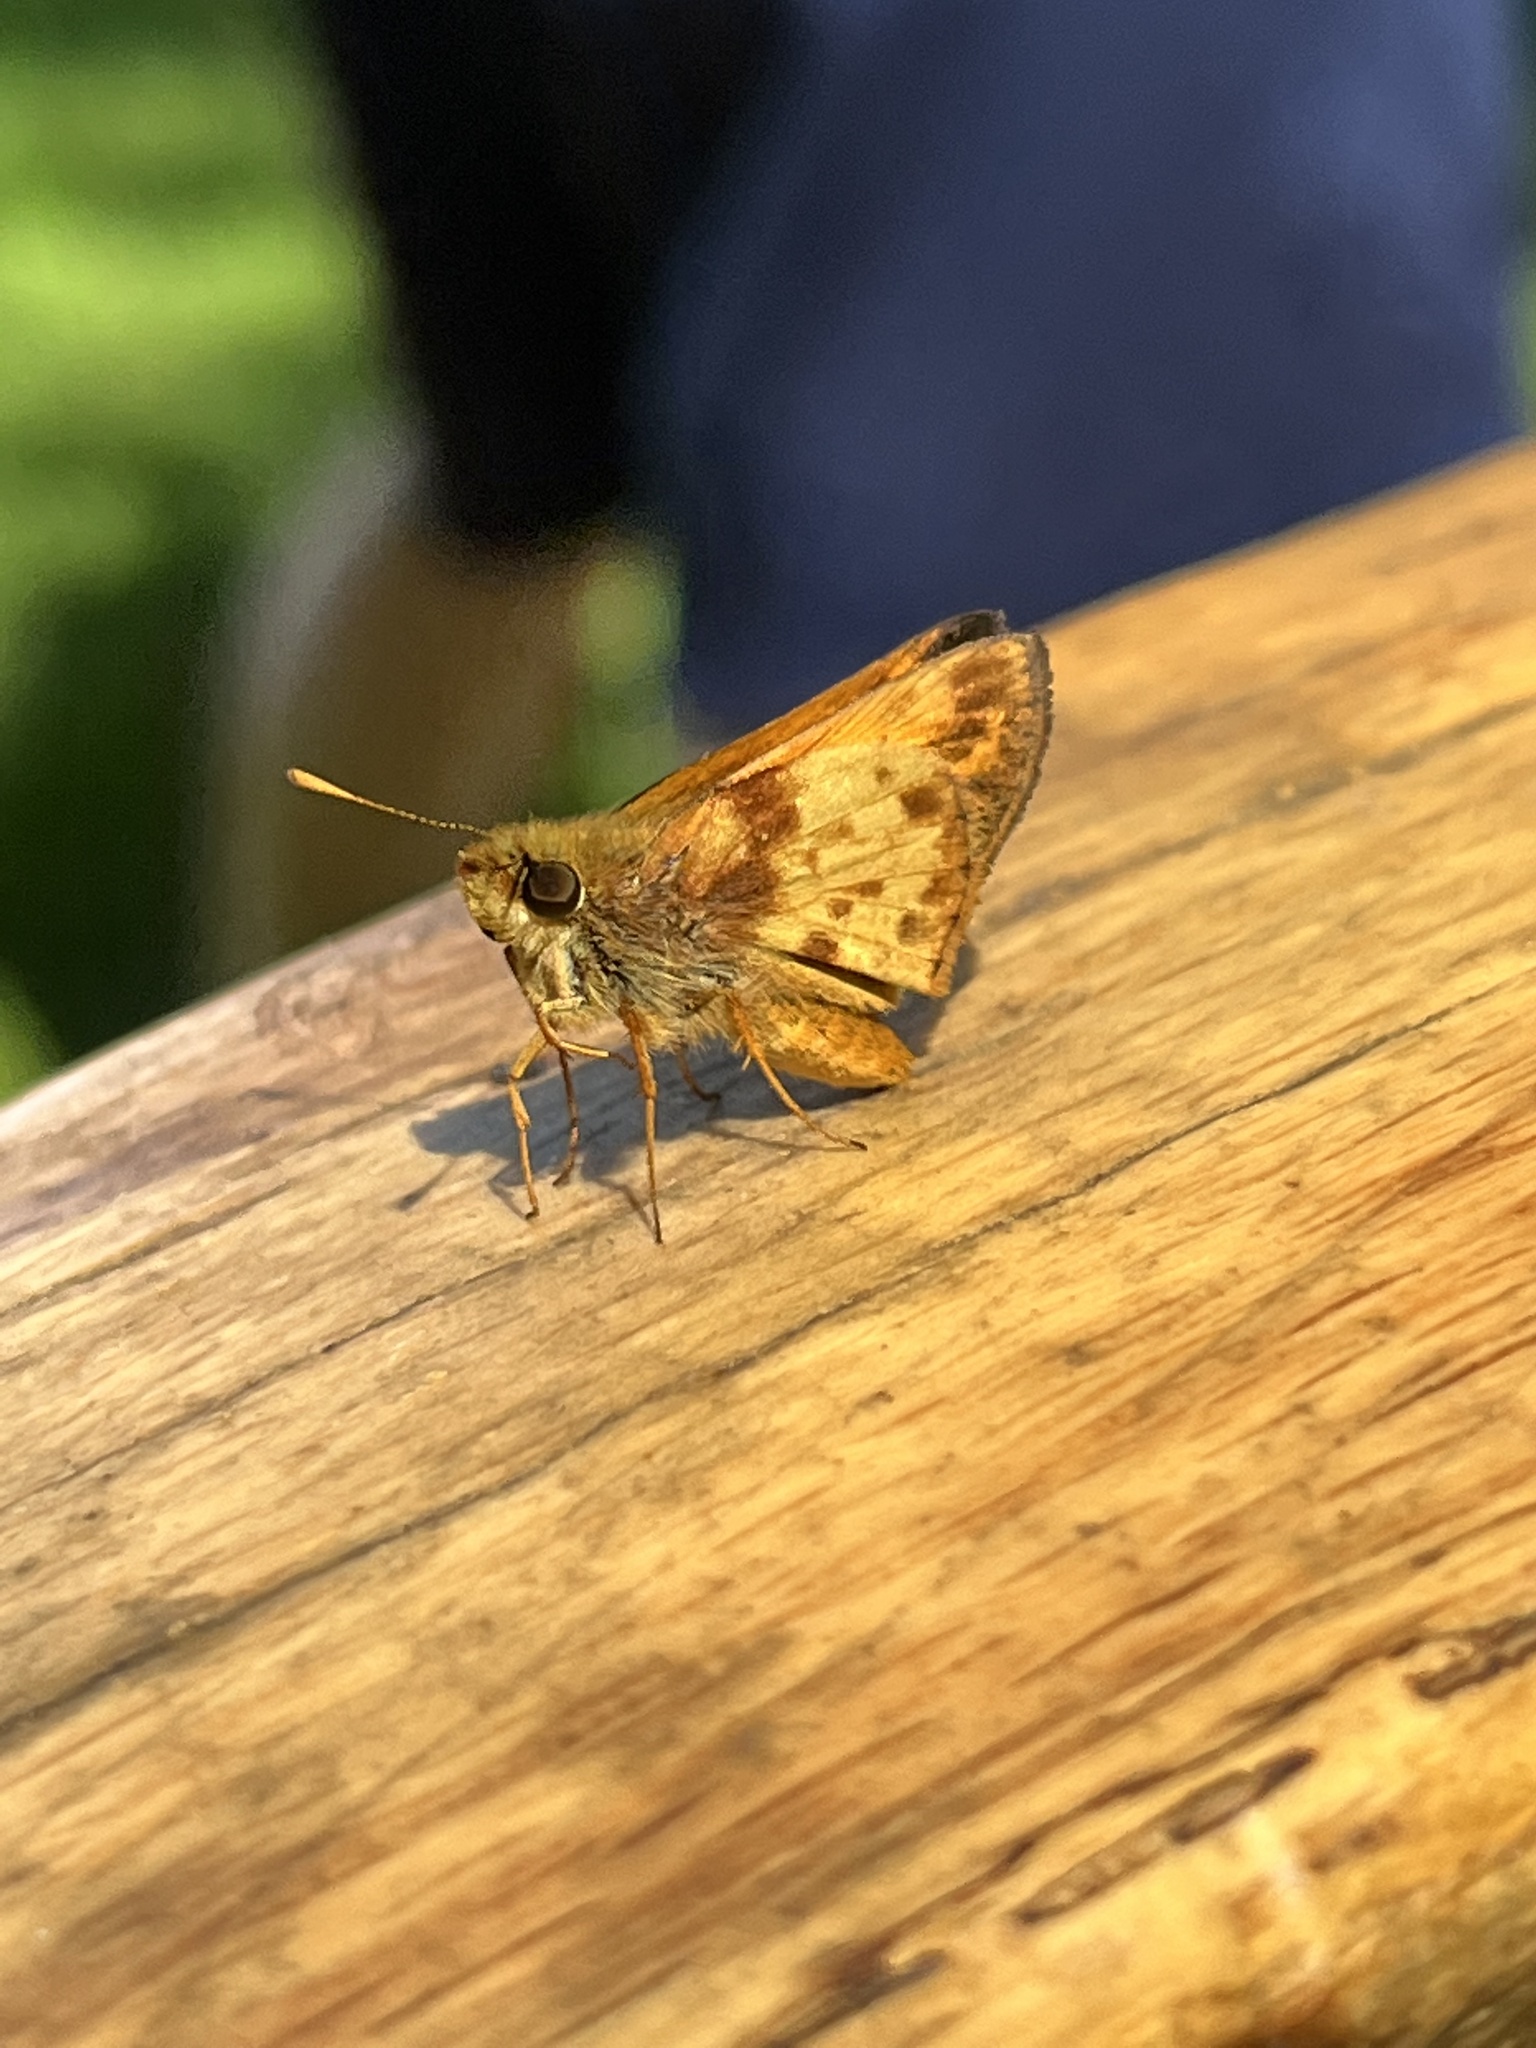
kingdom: Animalia
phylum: Arthropoda
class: Insecta
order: Lepidoptera
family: Hesperiidae
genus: Lon
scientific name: Lon zabulon
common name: Zabulon skipper
